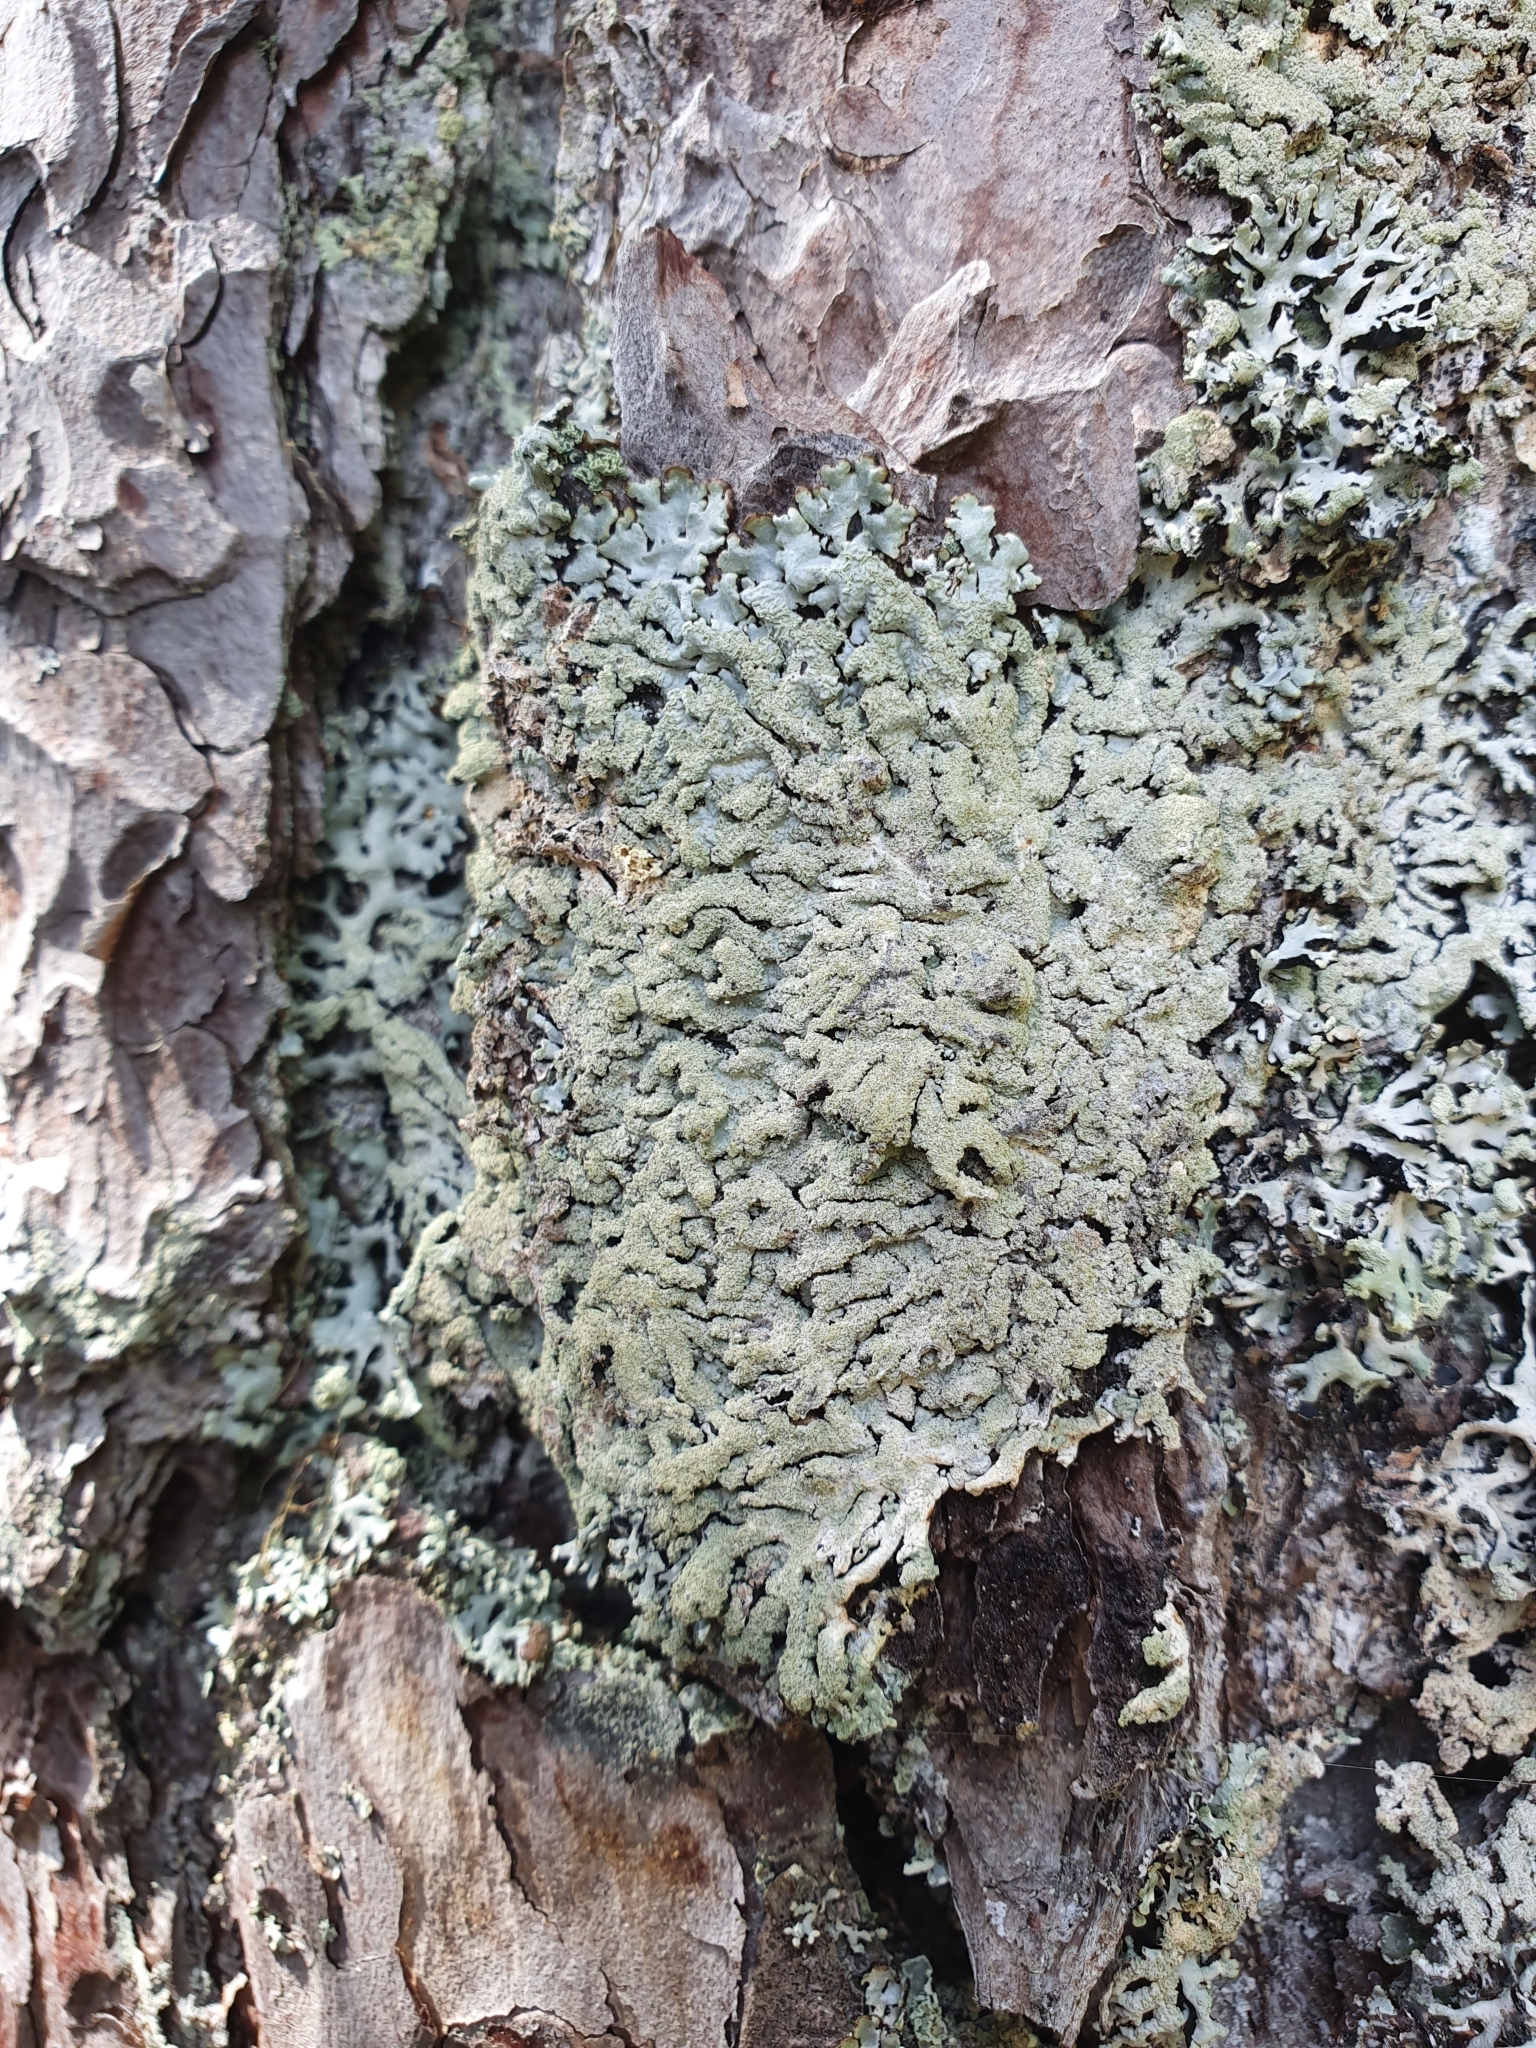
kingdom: Fungi
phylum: Ascomycota
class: Lecanoromycetes
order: Lecanorales
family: Parmeliaceae
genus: Hypogymnia
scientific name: Hypogymnia farinacea
